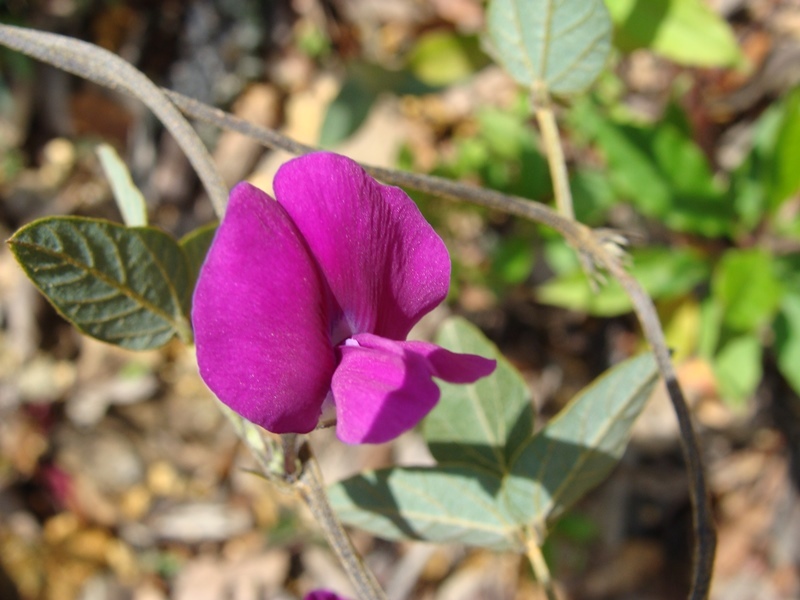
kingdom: Plantae
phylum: Tracheophyta
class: Magnoliopsida
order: Fabales
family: Fabaceae
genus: Cologania
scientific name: Cologania biloba
